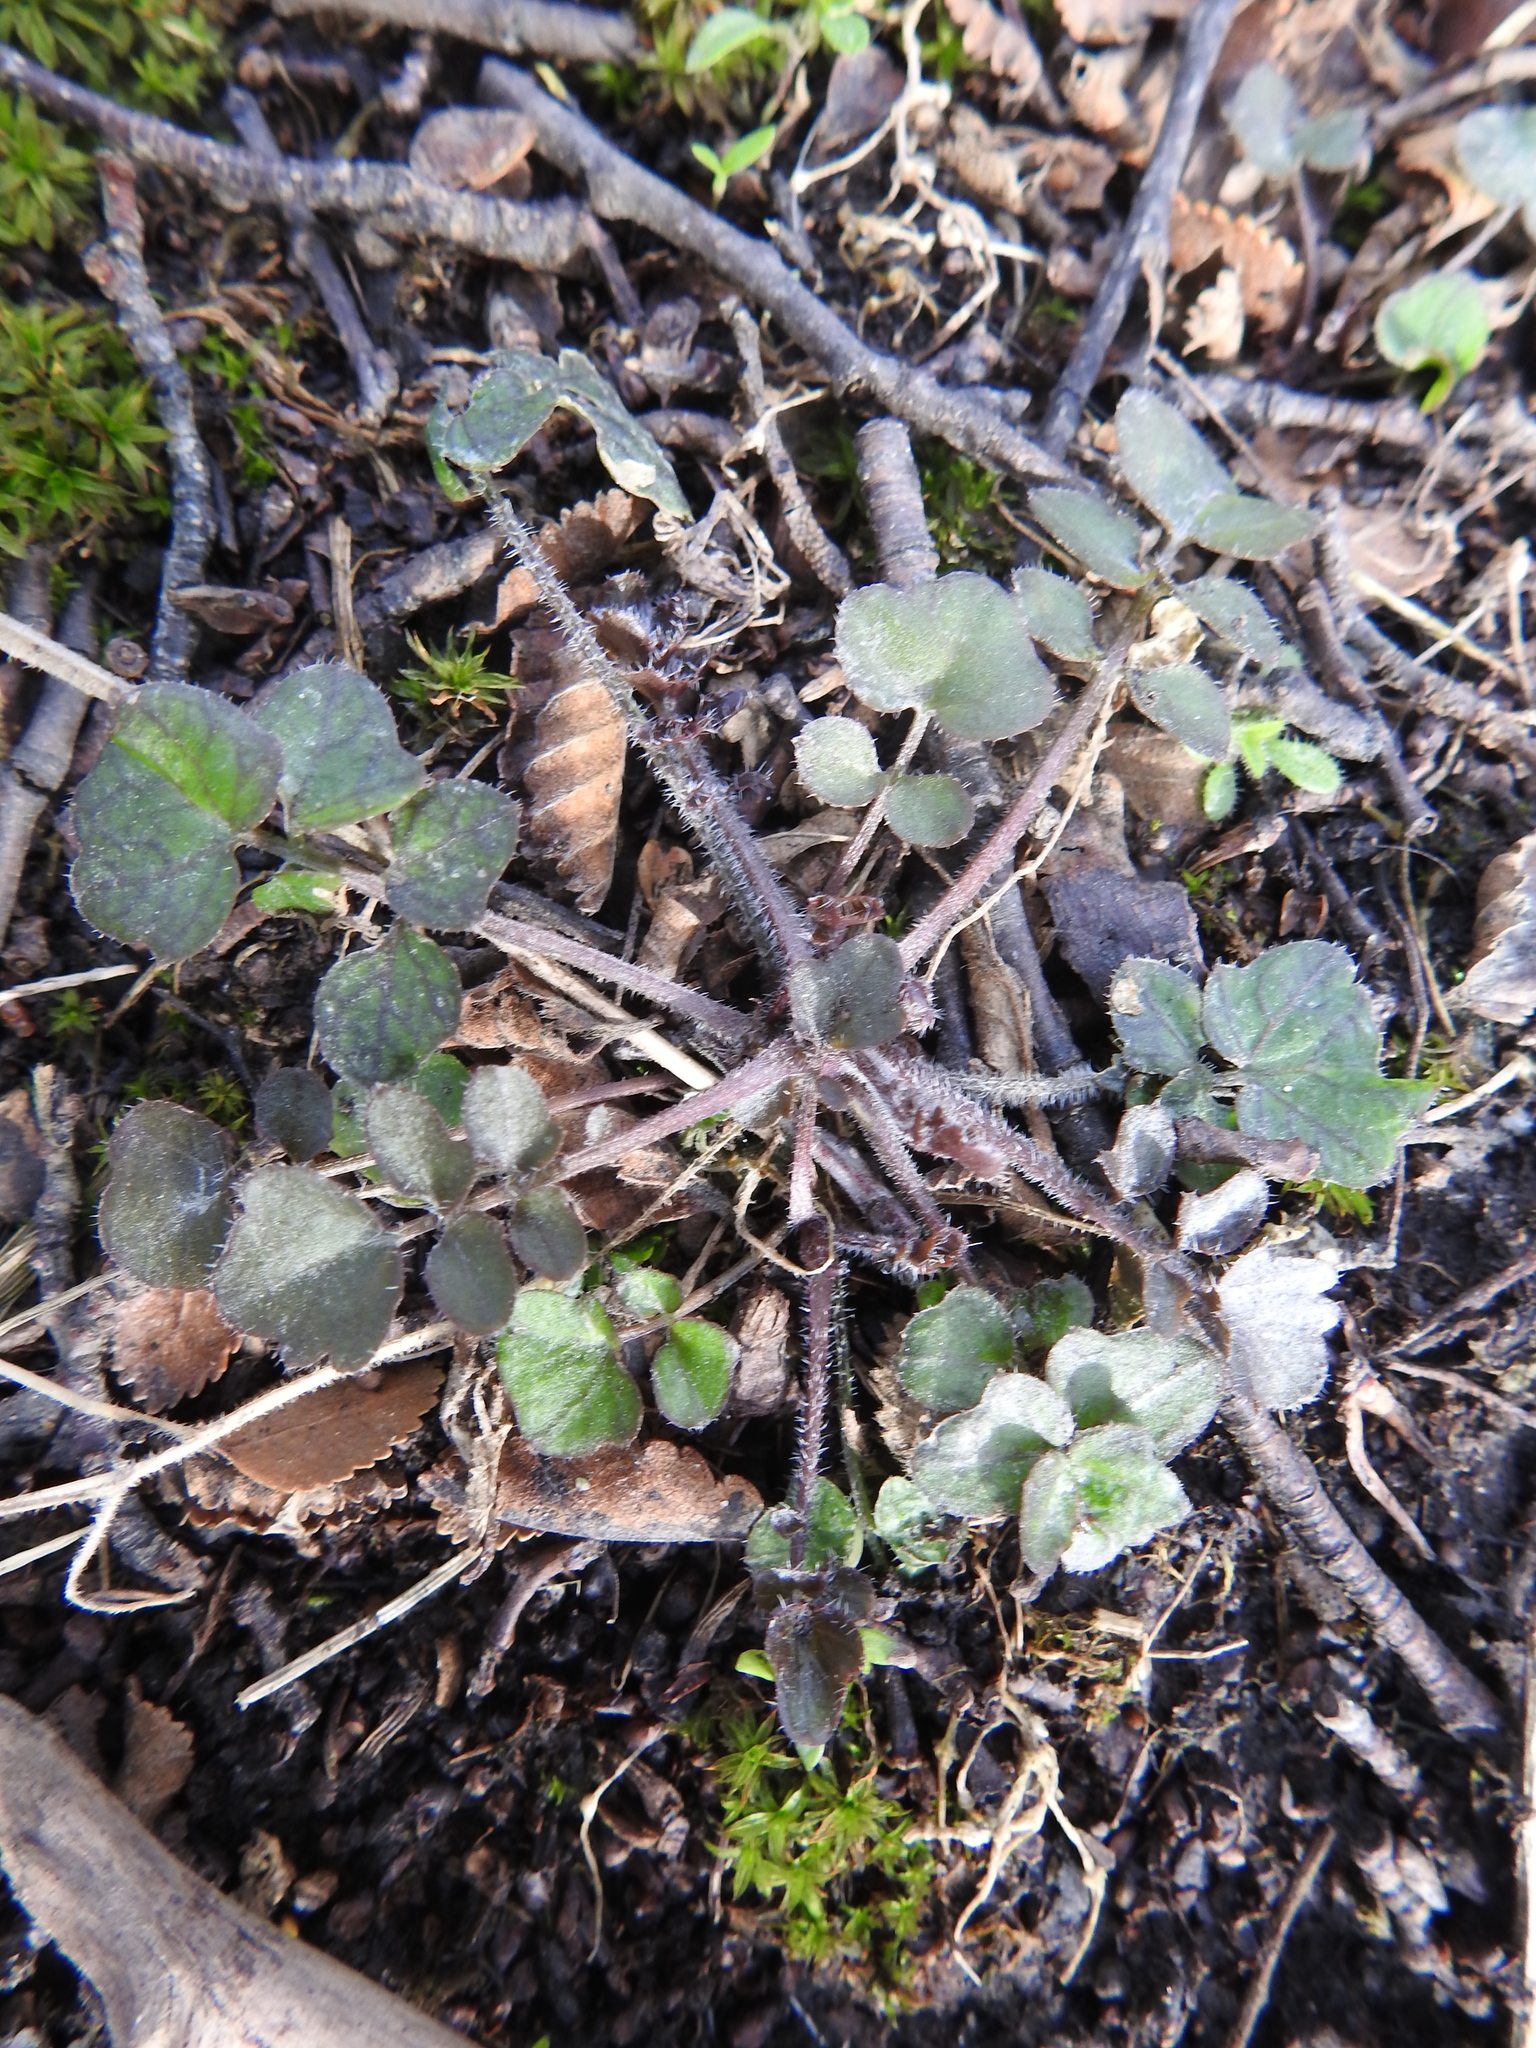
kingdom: Plantae
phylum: Tracheophyta
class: Magnoliopsida
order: Brassicales
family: Brassicaceae
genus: Cardamine
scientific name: Cardamine glacialis
